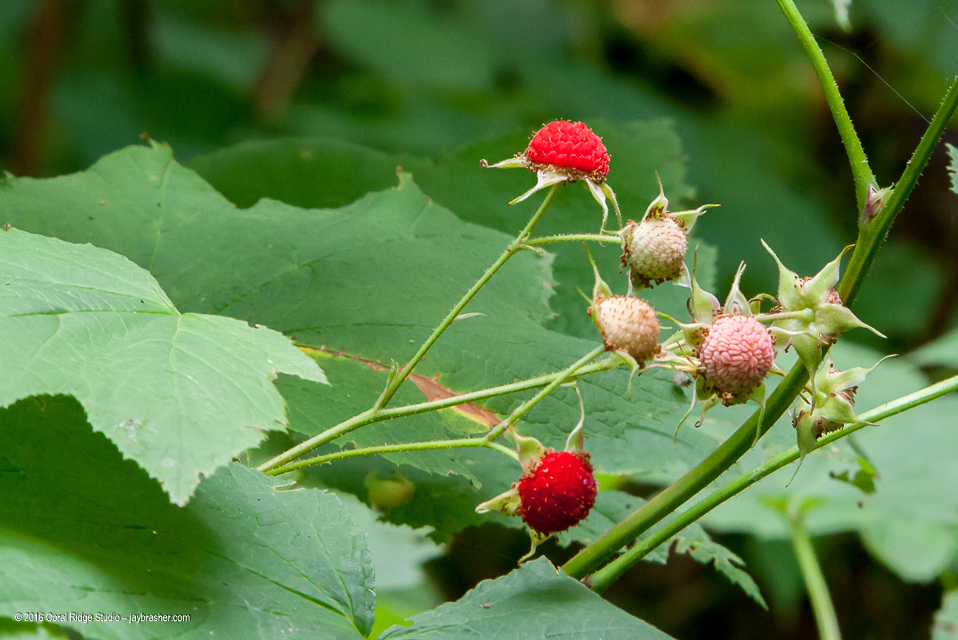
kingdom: Plantae
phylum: Tracheophyta
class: Magnoliopsida
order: Rosales
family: Rosaceae
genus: Rubus
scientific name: Rubus parviflorus
